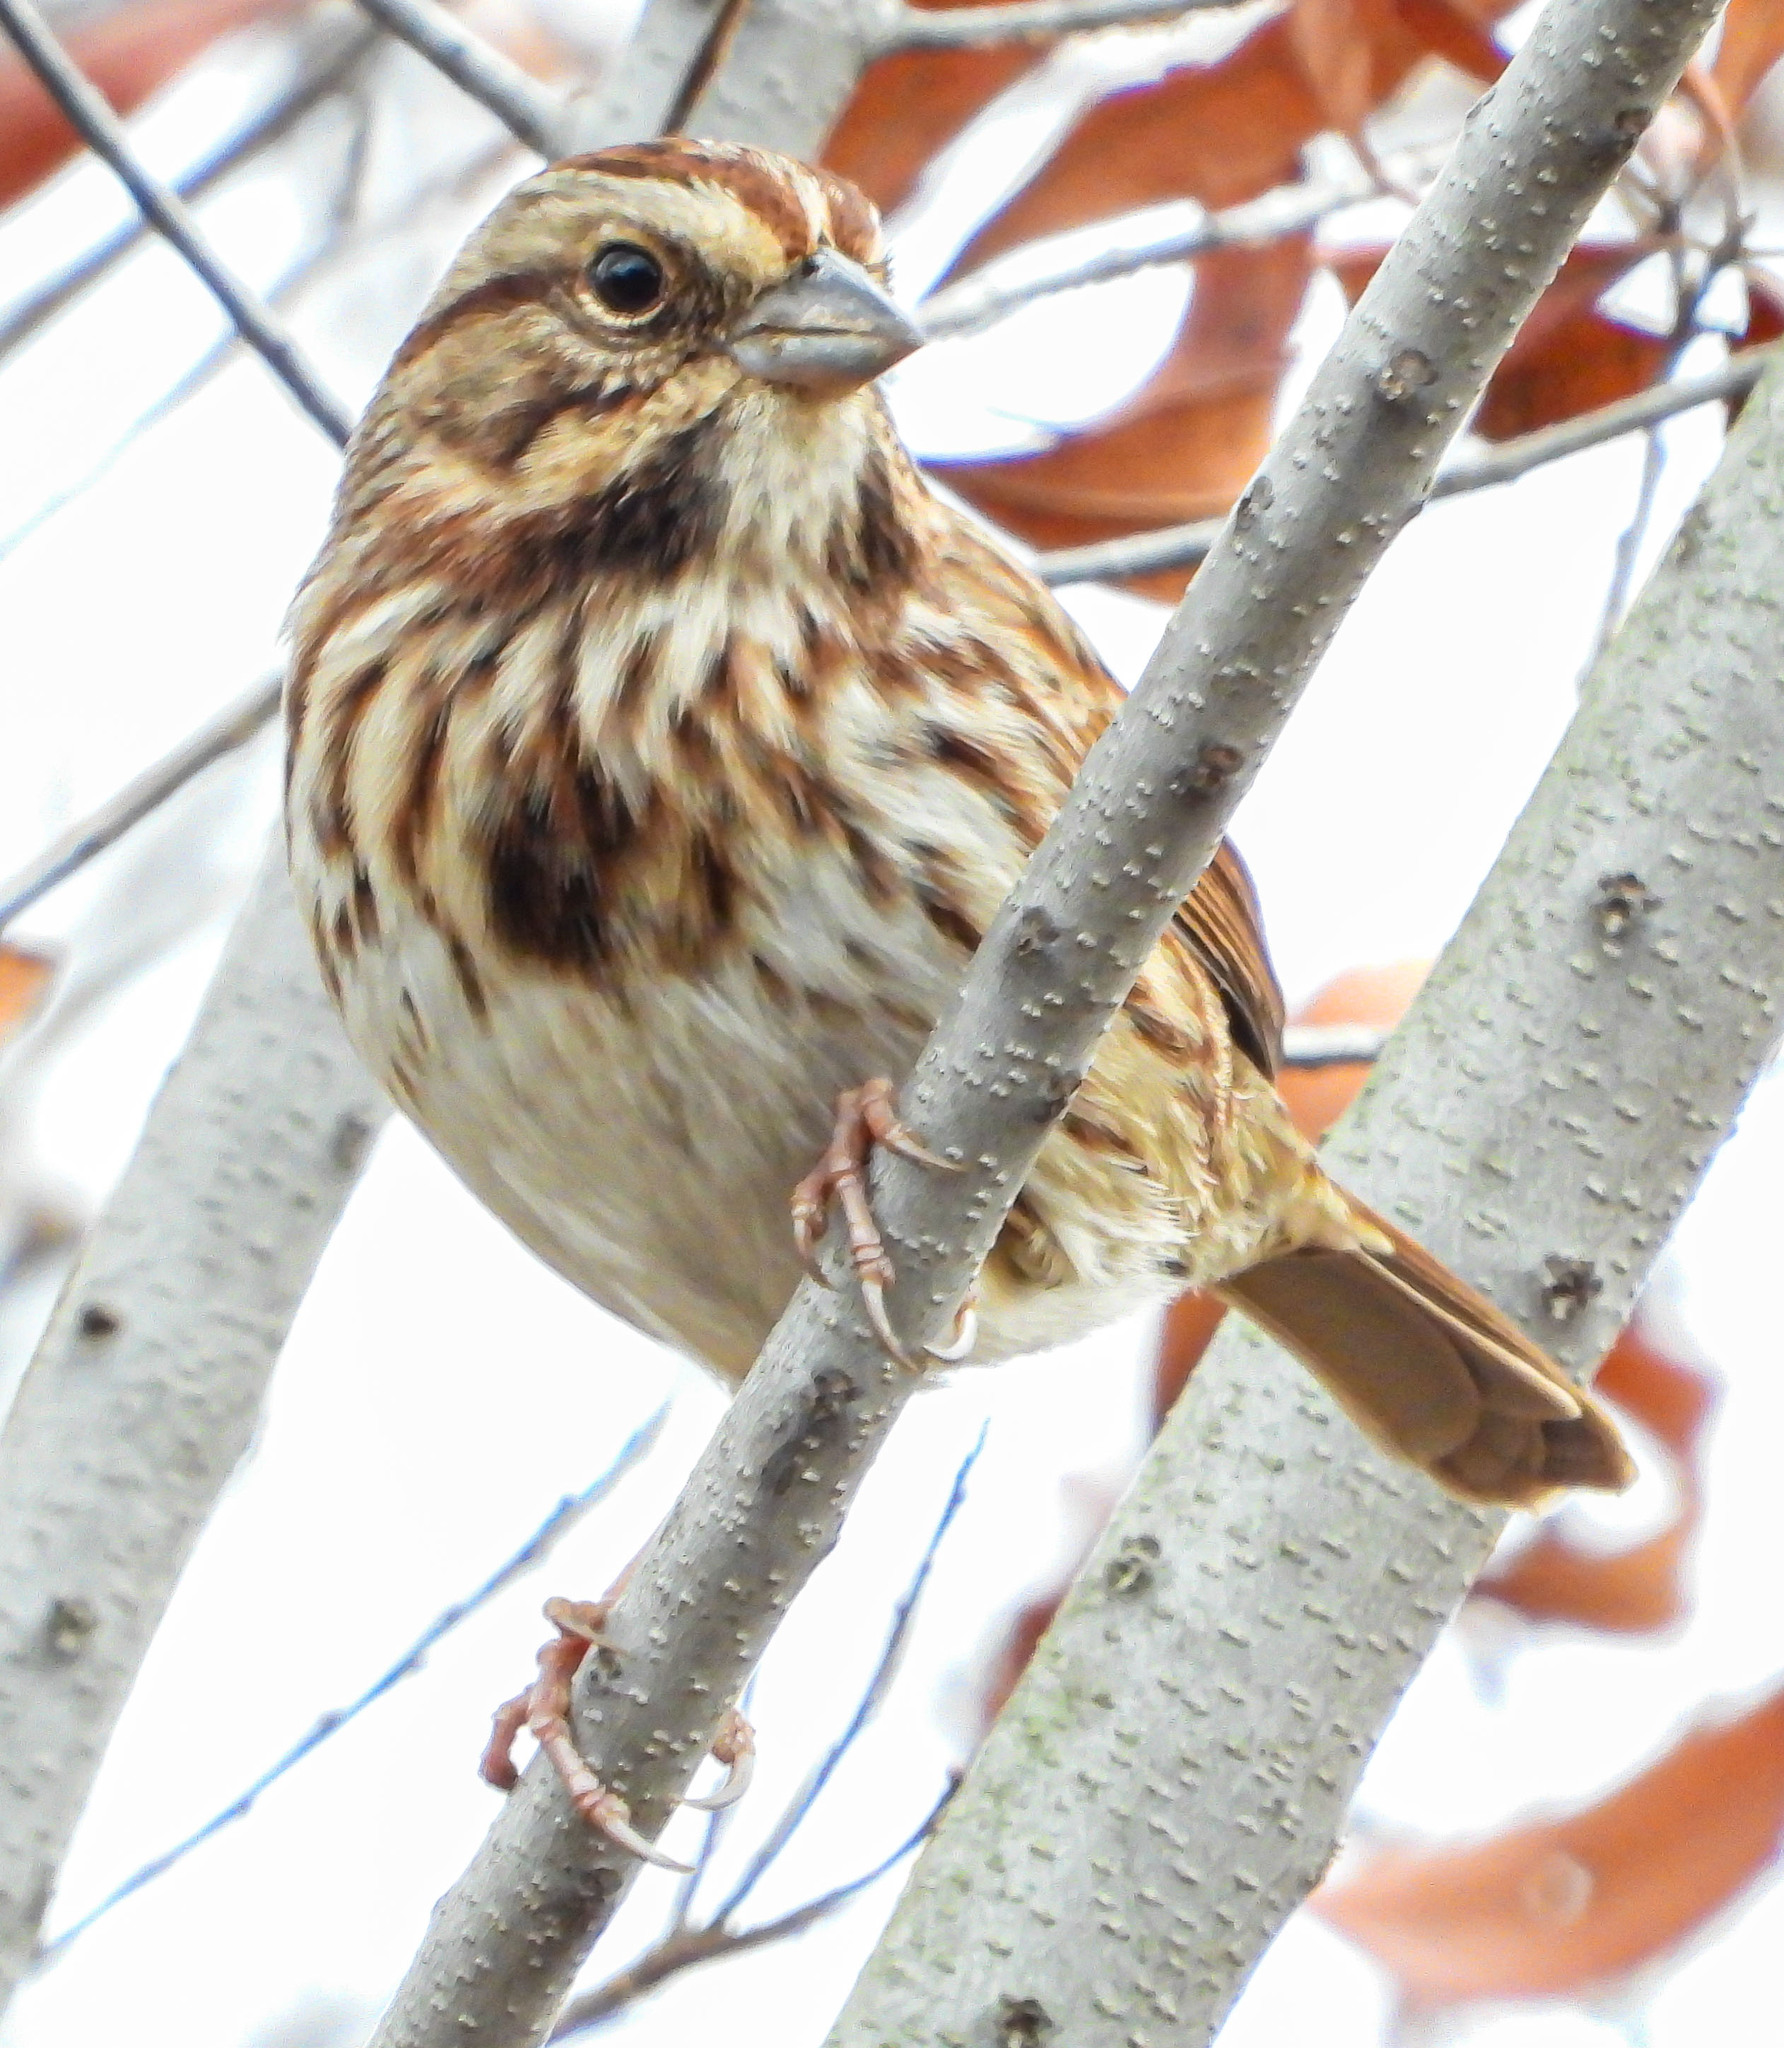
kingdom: Animalia
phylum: Chordata
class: Aves
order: Passeriformes
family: Passerellidae
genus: Melospiza
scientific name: Melospiza melodia
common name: Song sparrow
